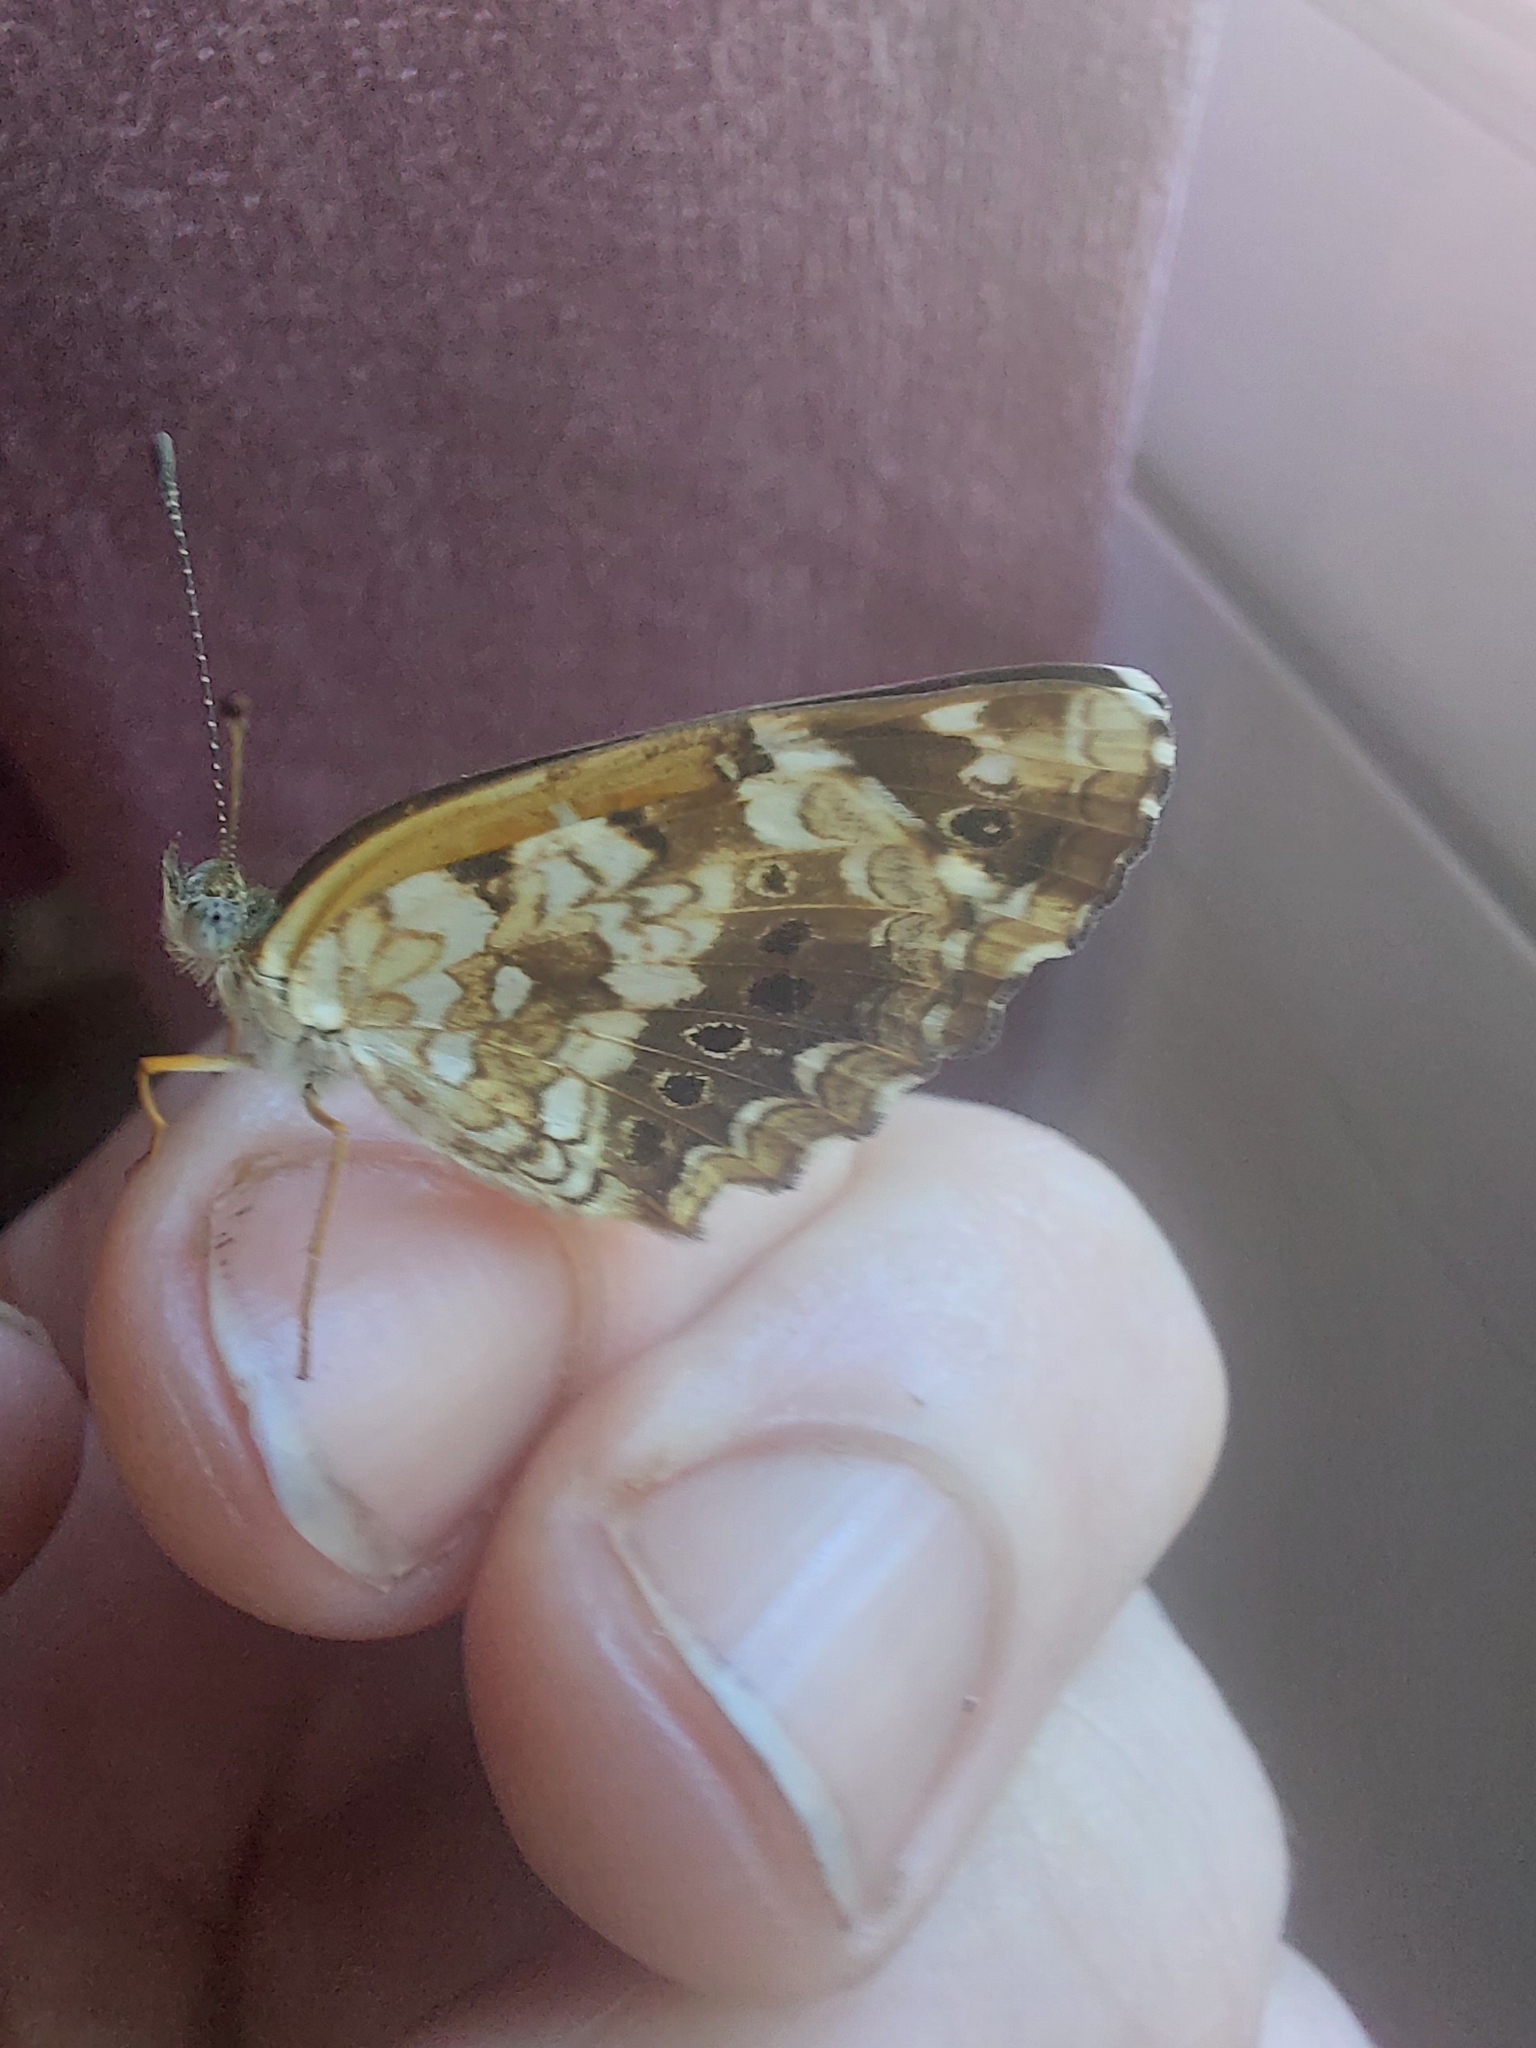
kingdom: Animalia
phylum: Arthropoda
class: Insecta
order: Lepidoptera
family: Nymphalidae
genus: Ortilia
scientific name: Ortilia ithra
